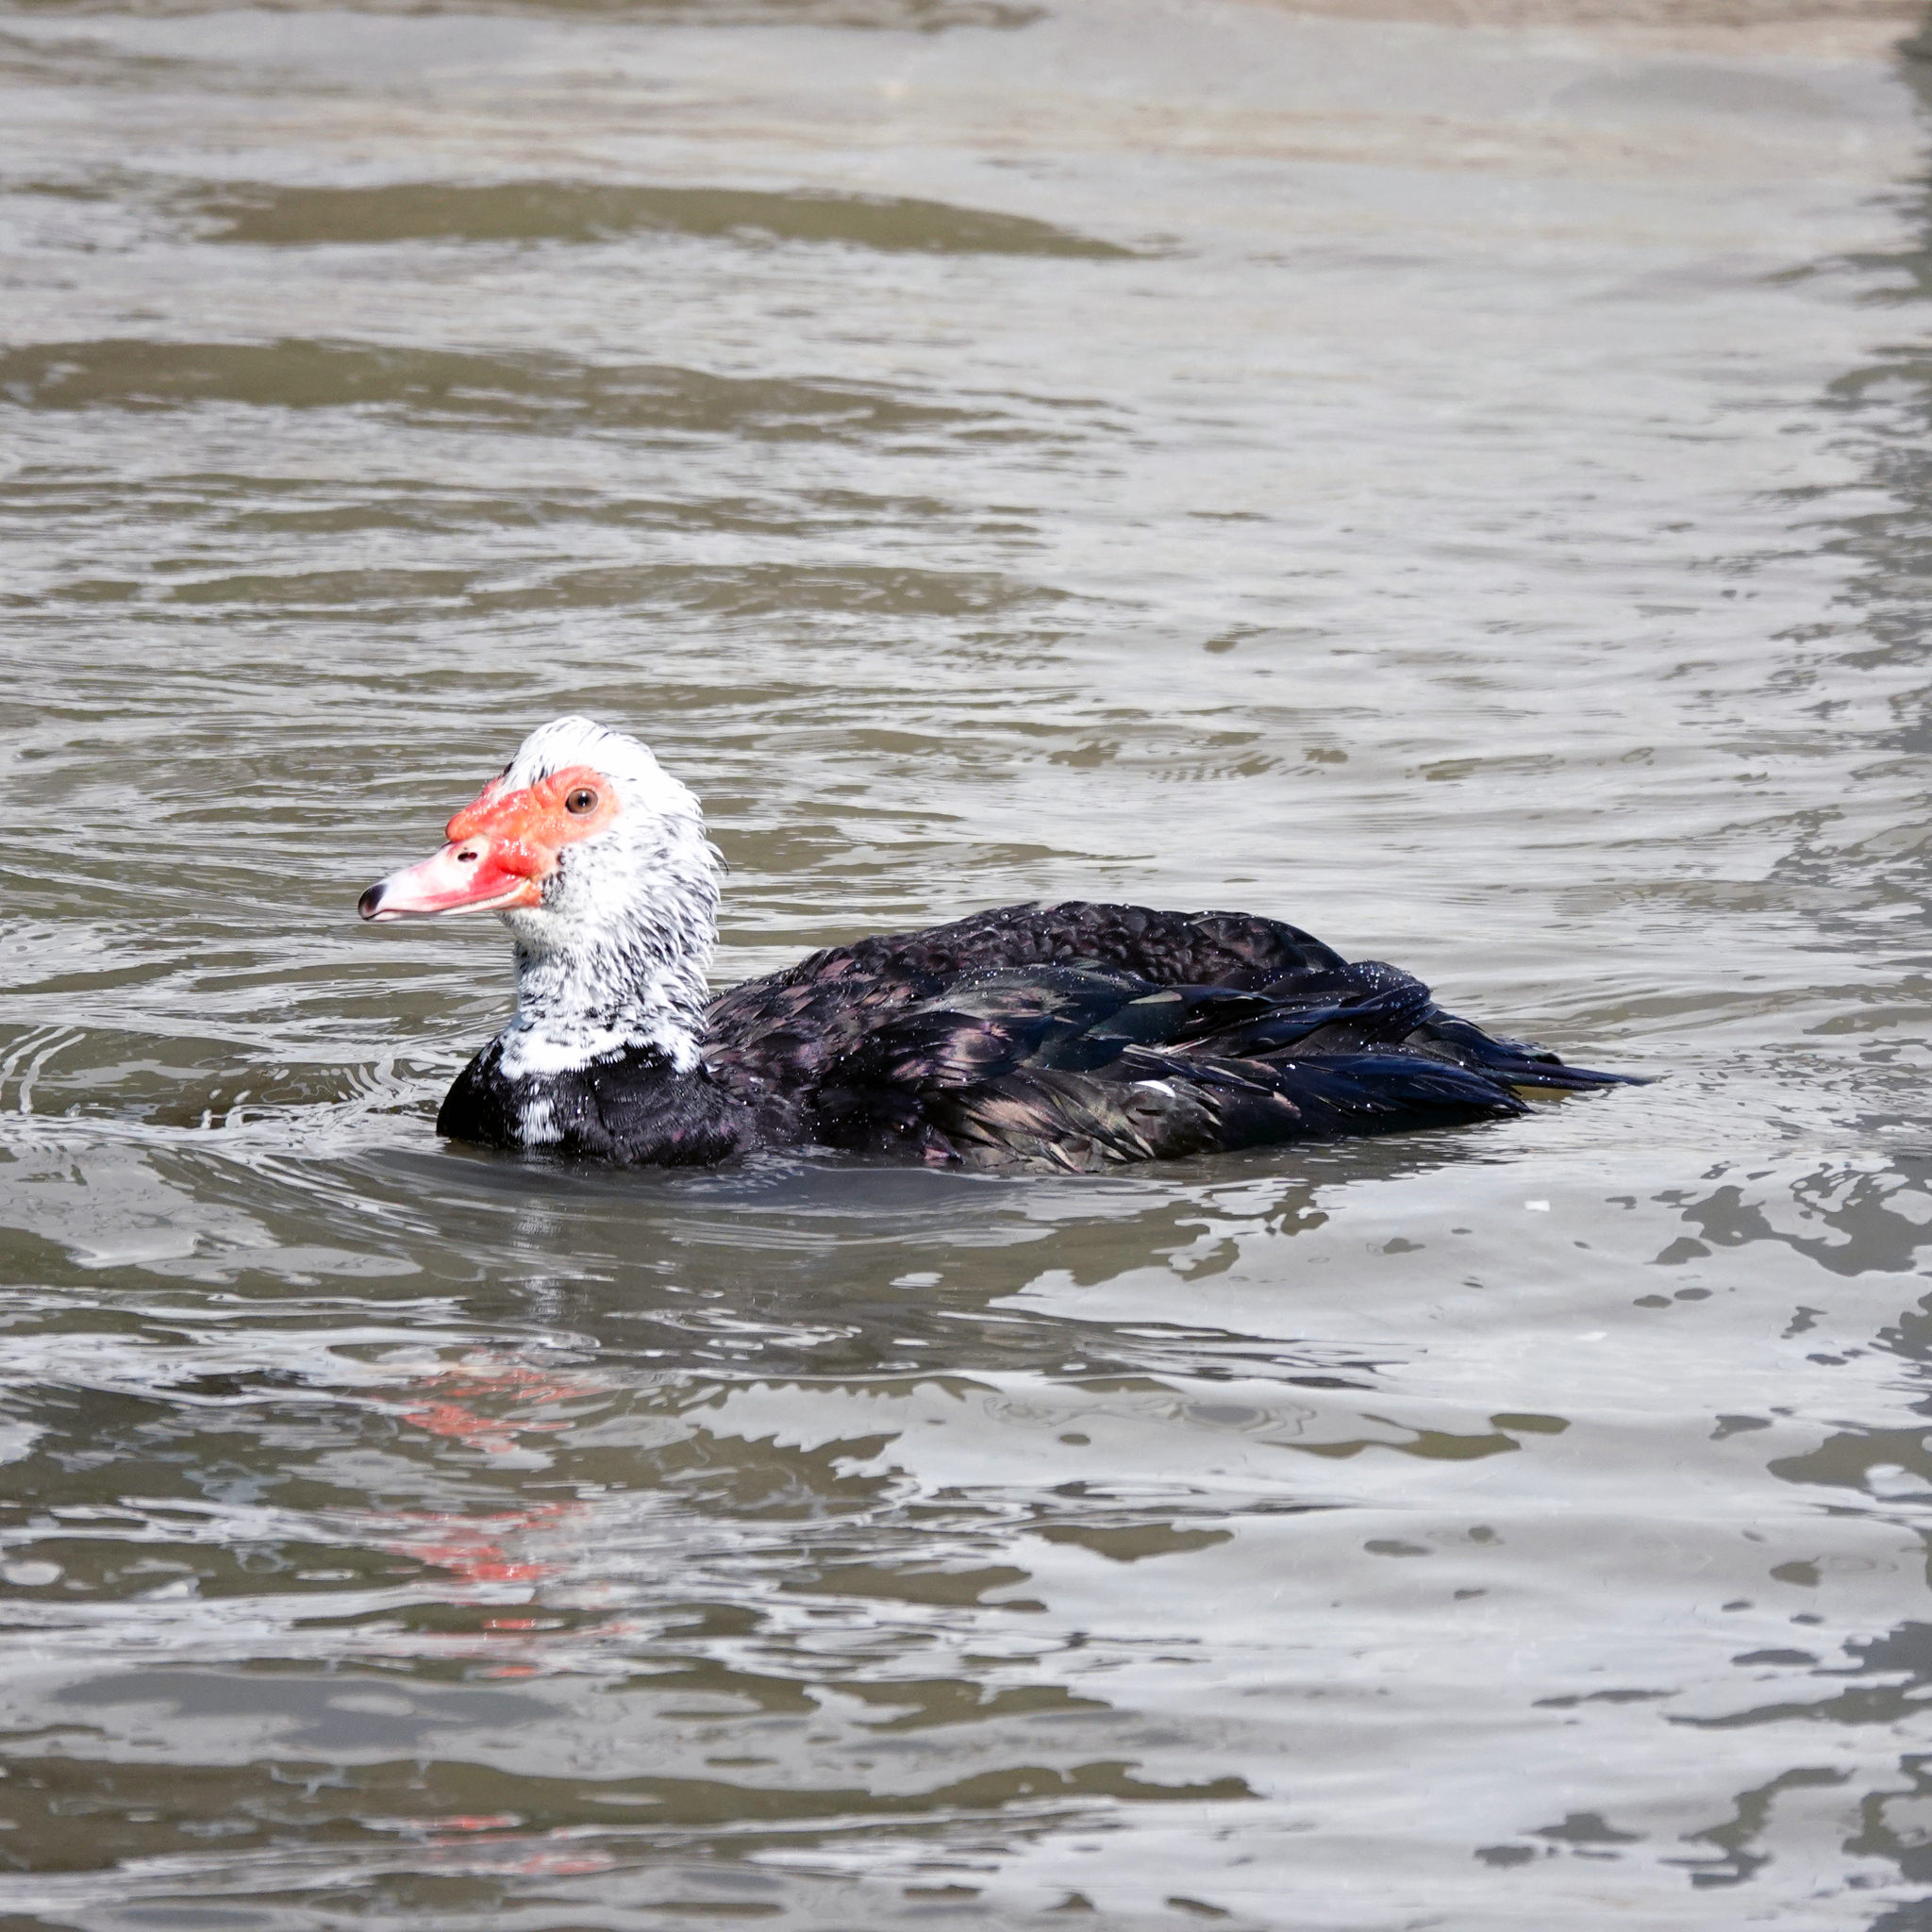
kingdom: Animalia
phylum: Chordata
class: Aves
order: Anseriformes
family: Anatidae
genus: Cairina
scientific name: Cairina moschata
